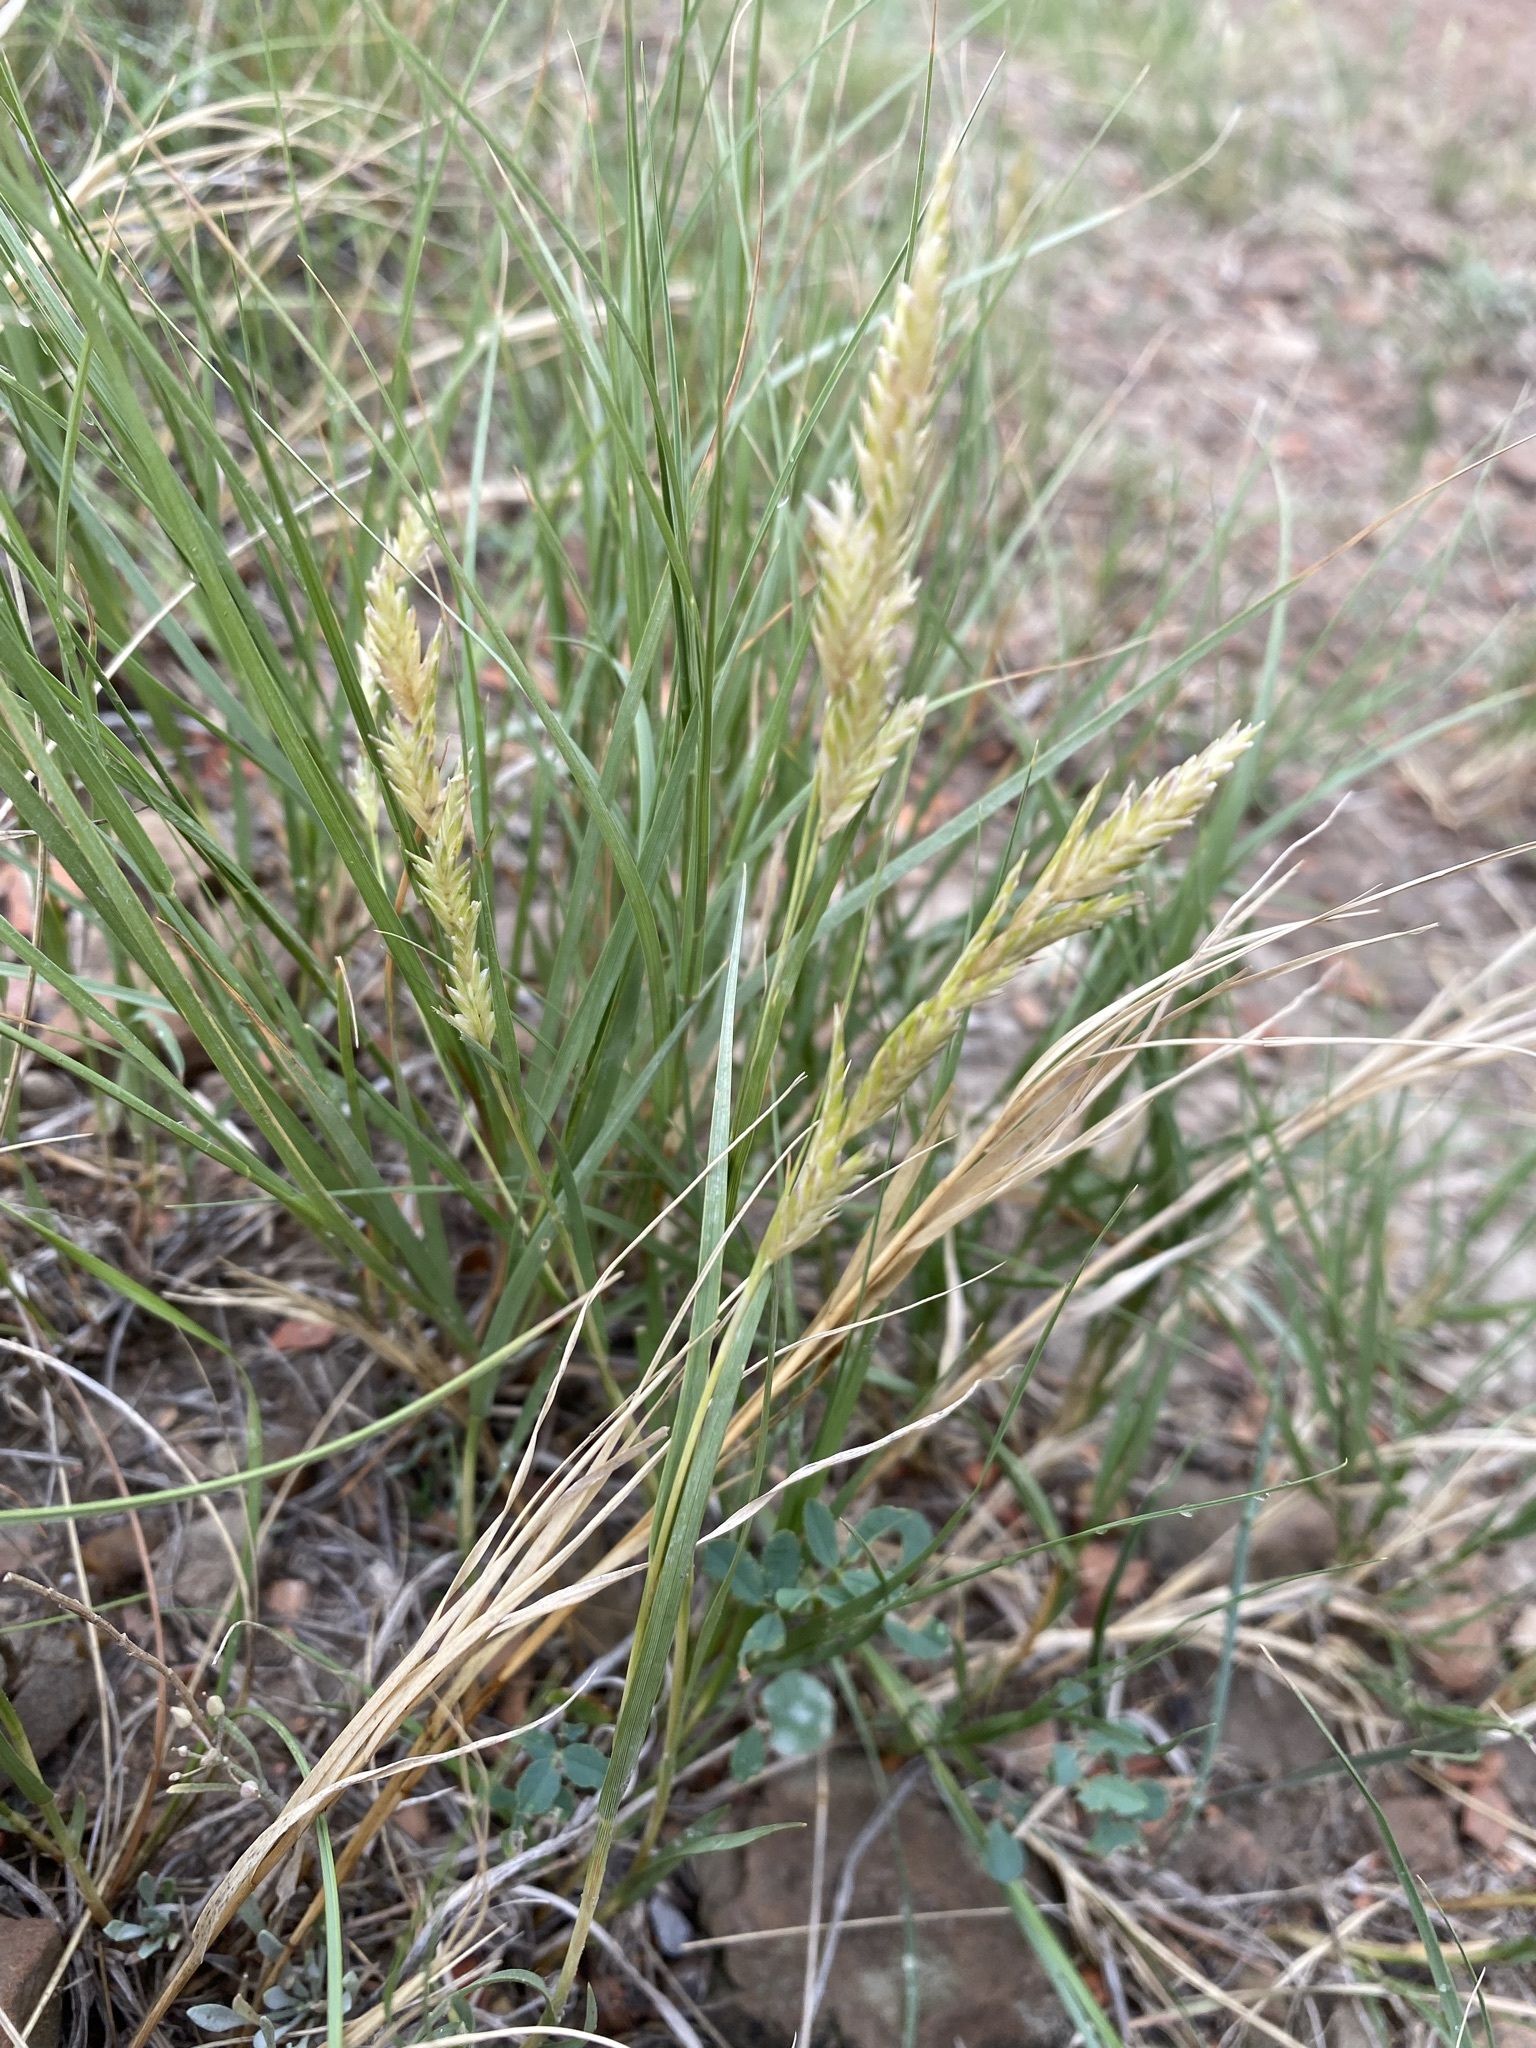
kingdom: Plantae
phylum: Tracheophyta
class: Liliopsida
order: Poales
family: Poaceae
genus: Distichlis
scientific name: Distichlis spicata
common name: Saltgrass
